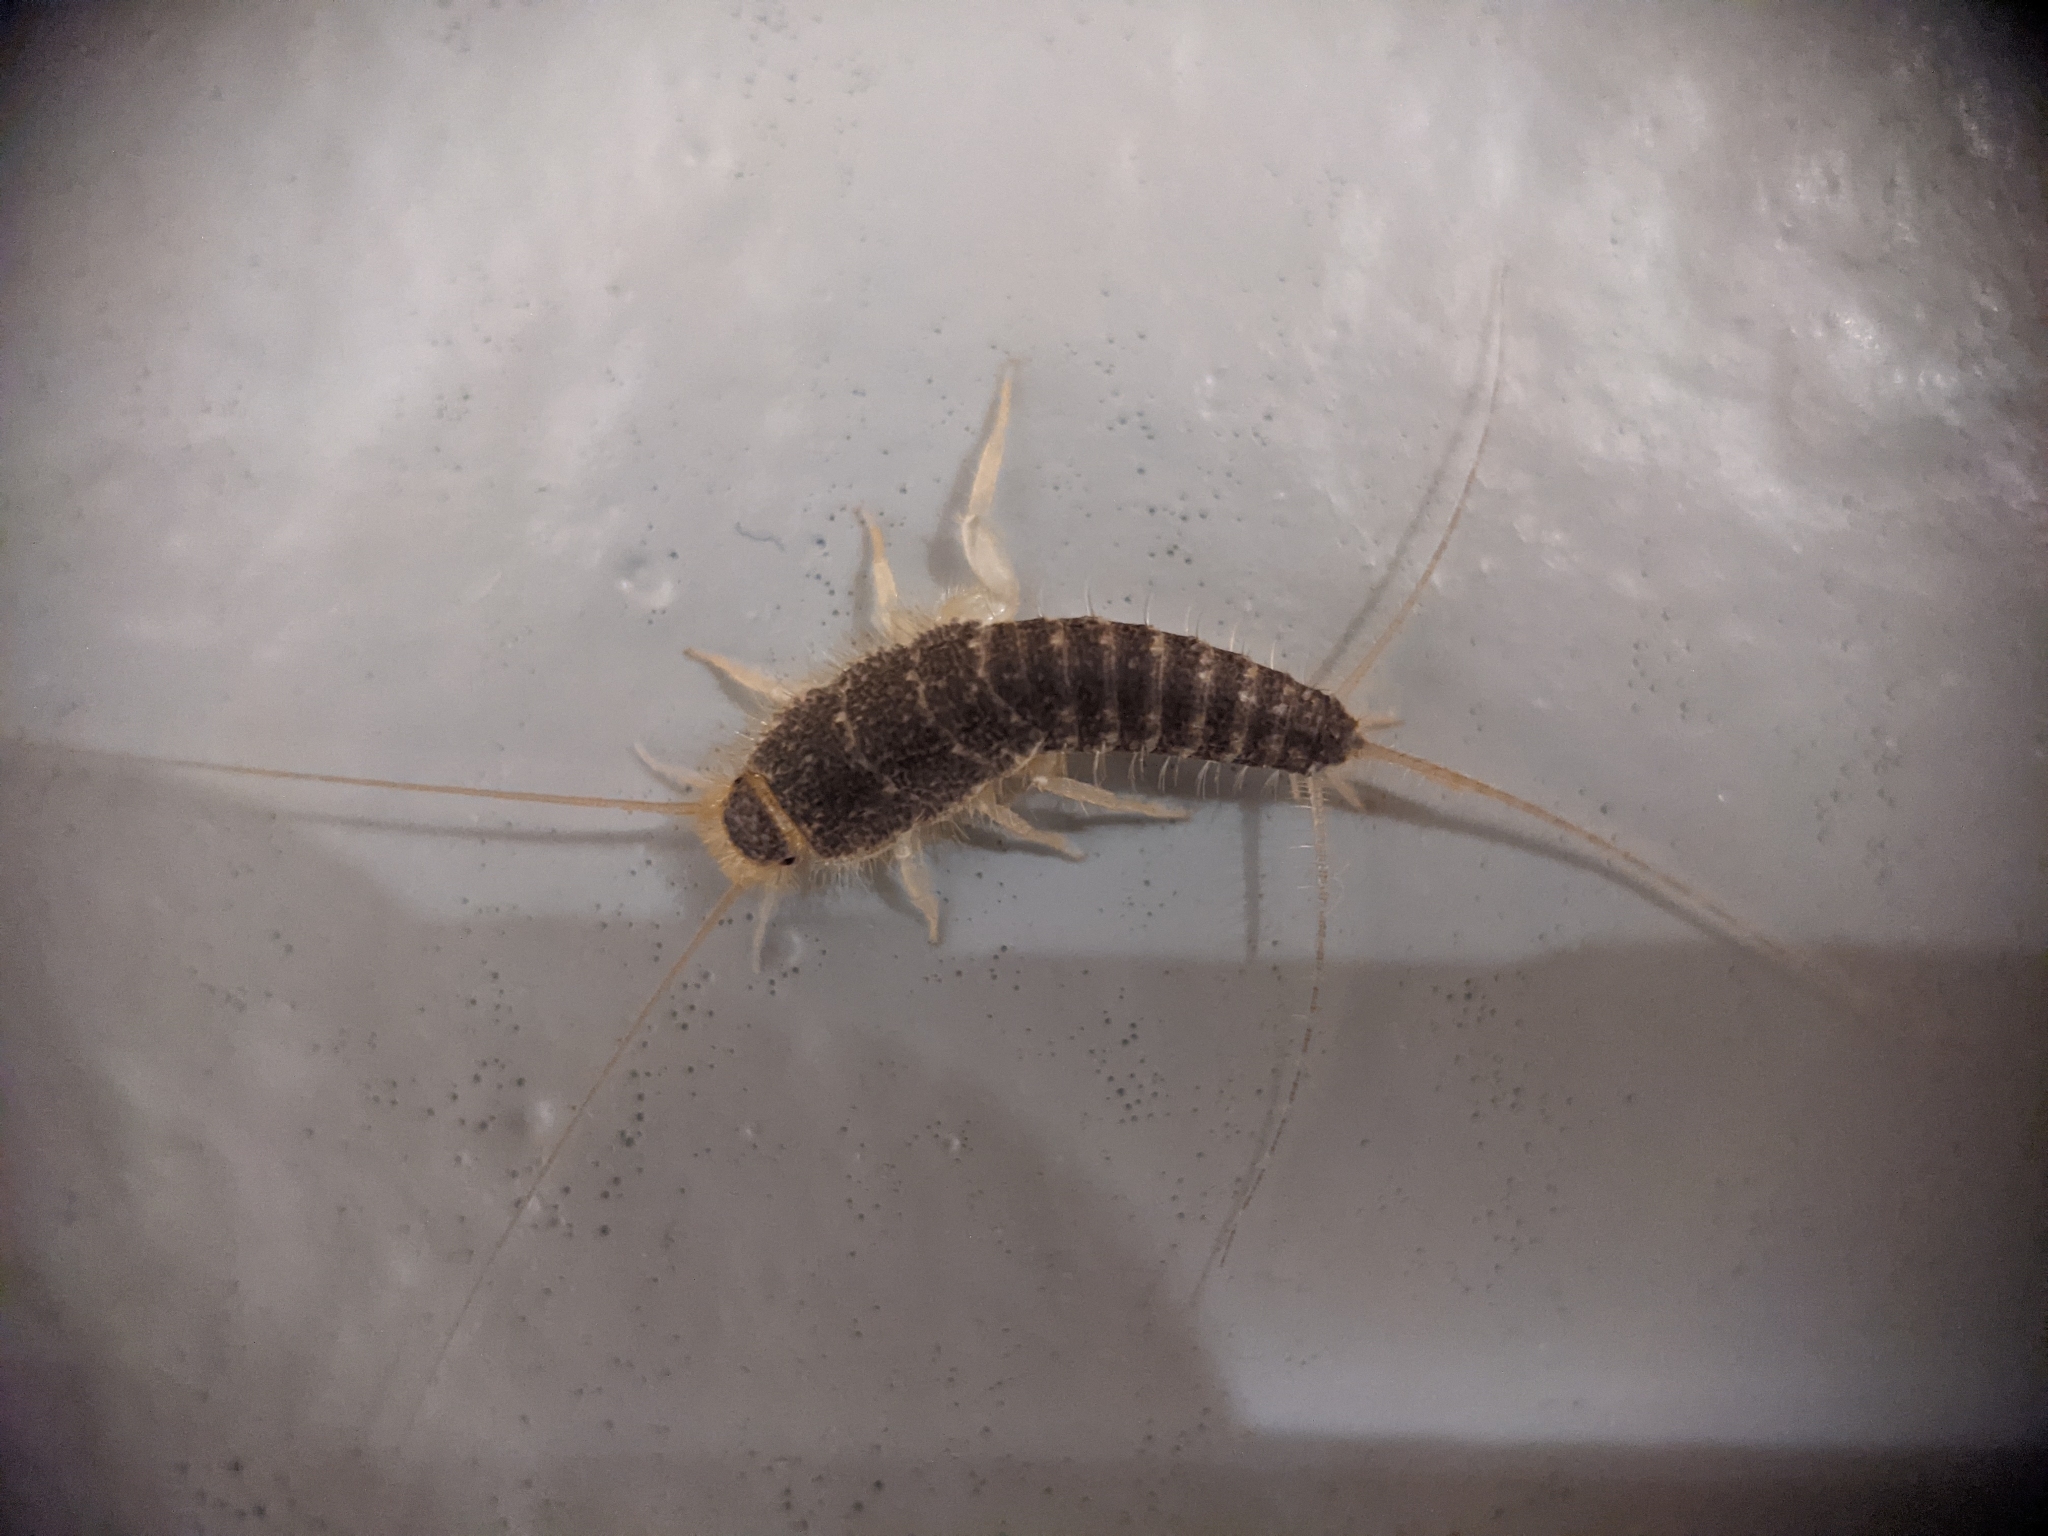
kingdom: Animalia
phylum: Arthropoda
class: Insecta
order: Zygentoma
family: Lepismatidae
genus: Ctenolepisma
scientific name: Ctenolepisma longicaudatum
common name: Silverfish
